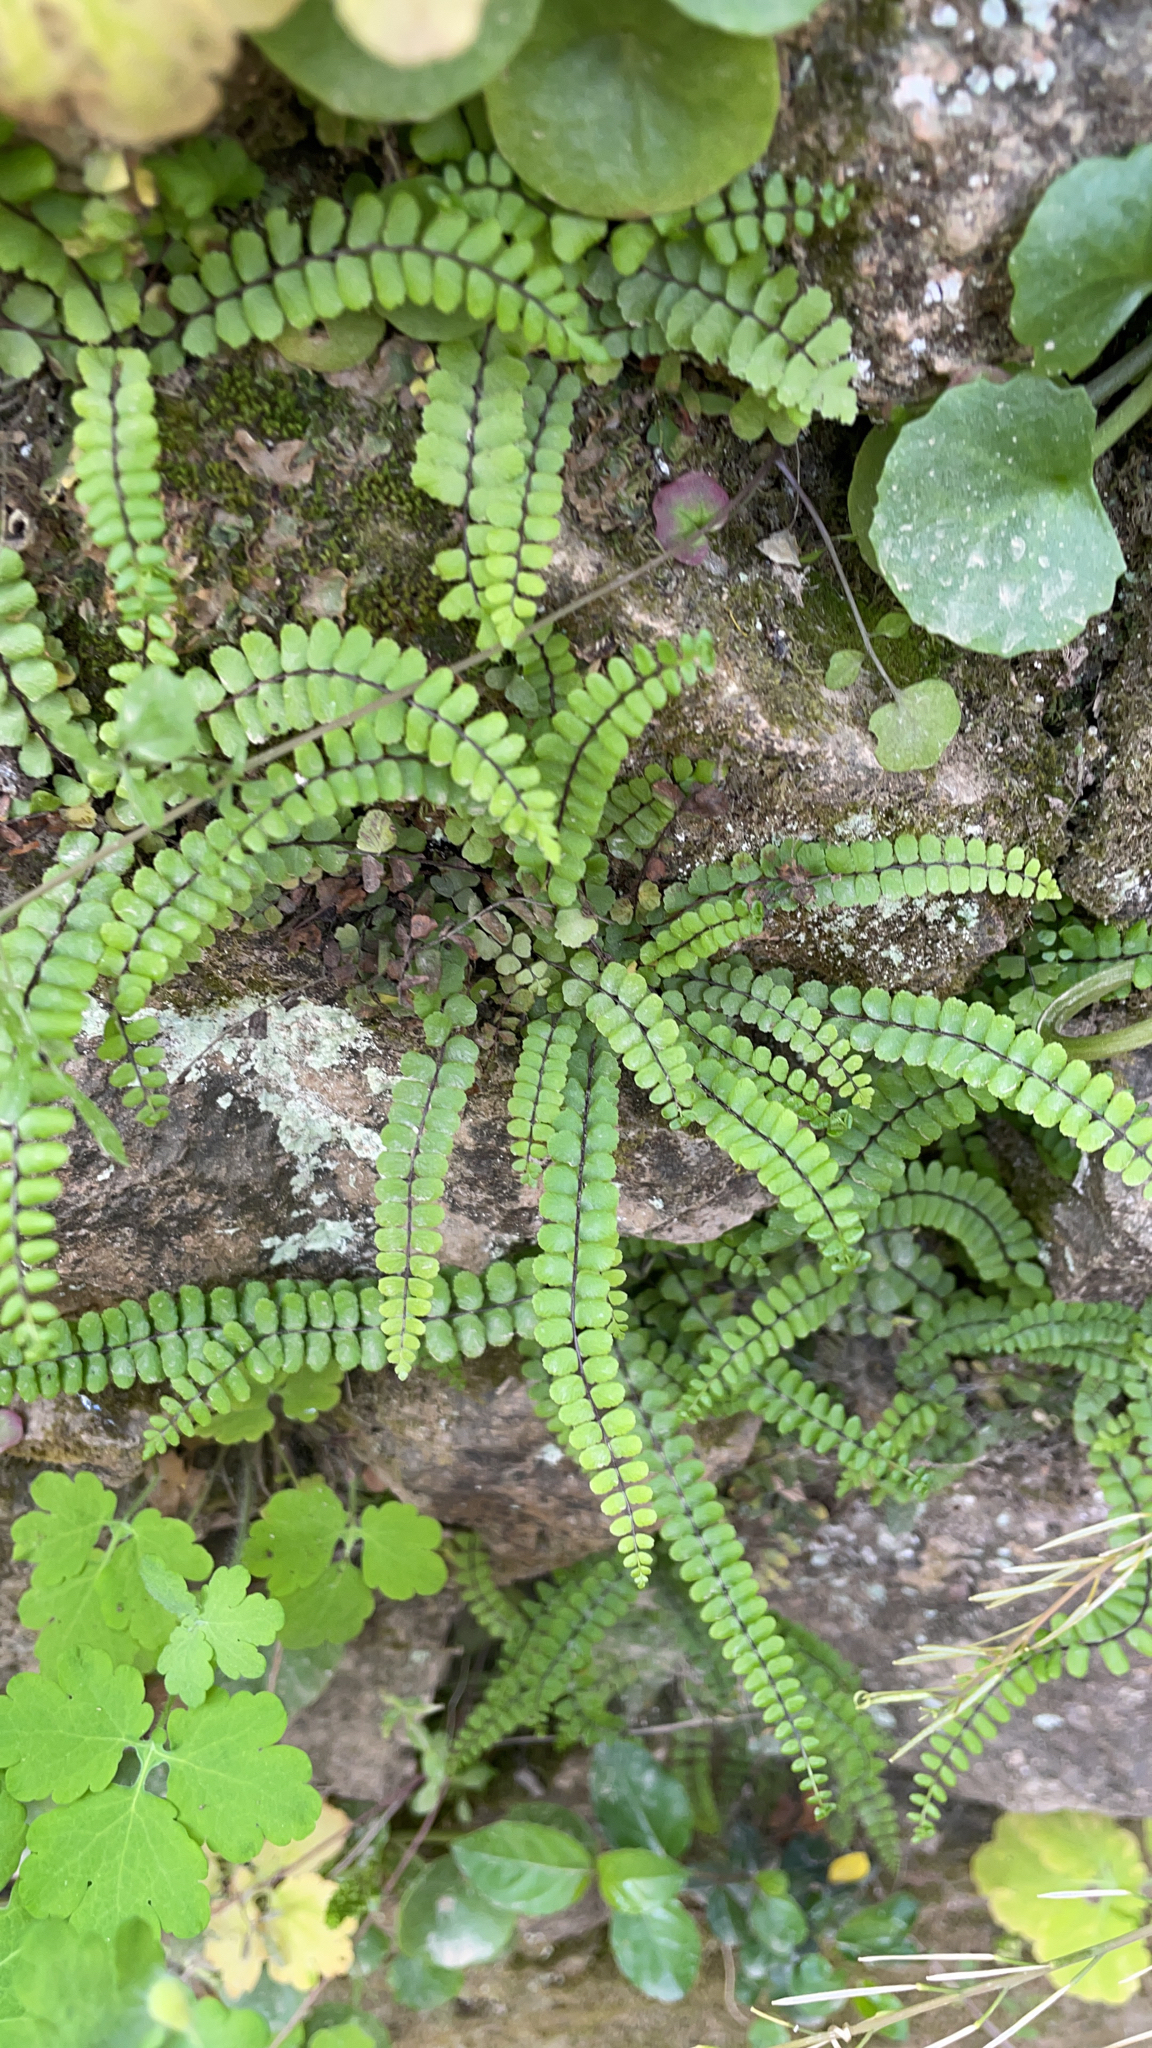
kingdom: Plantae
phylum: Tracheophyta
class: Polypodiopsida
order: Polypodiales
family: Aspleniaceae
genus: Asplenium
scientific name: Asplenium trichomanes
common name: Maidenhair spleenwort
